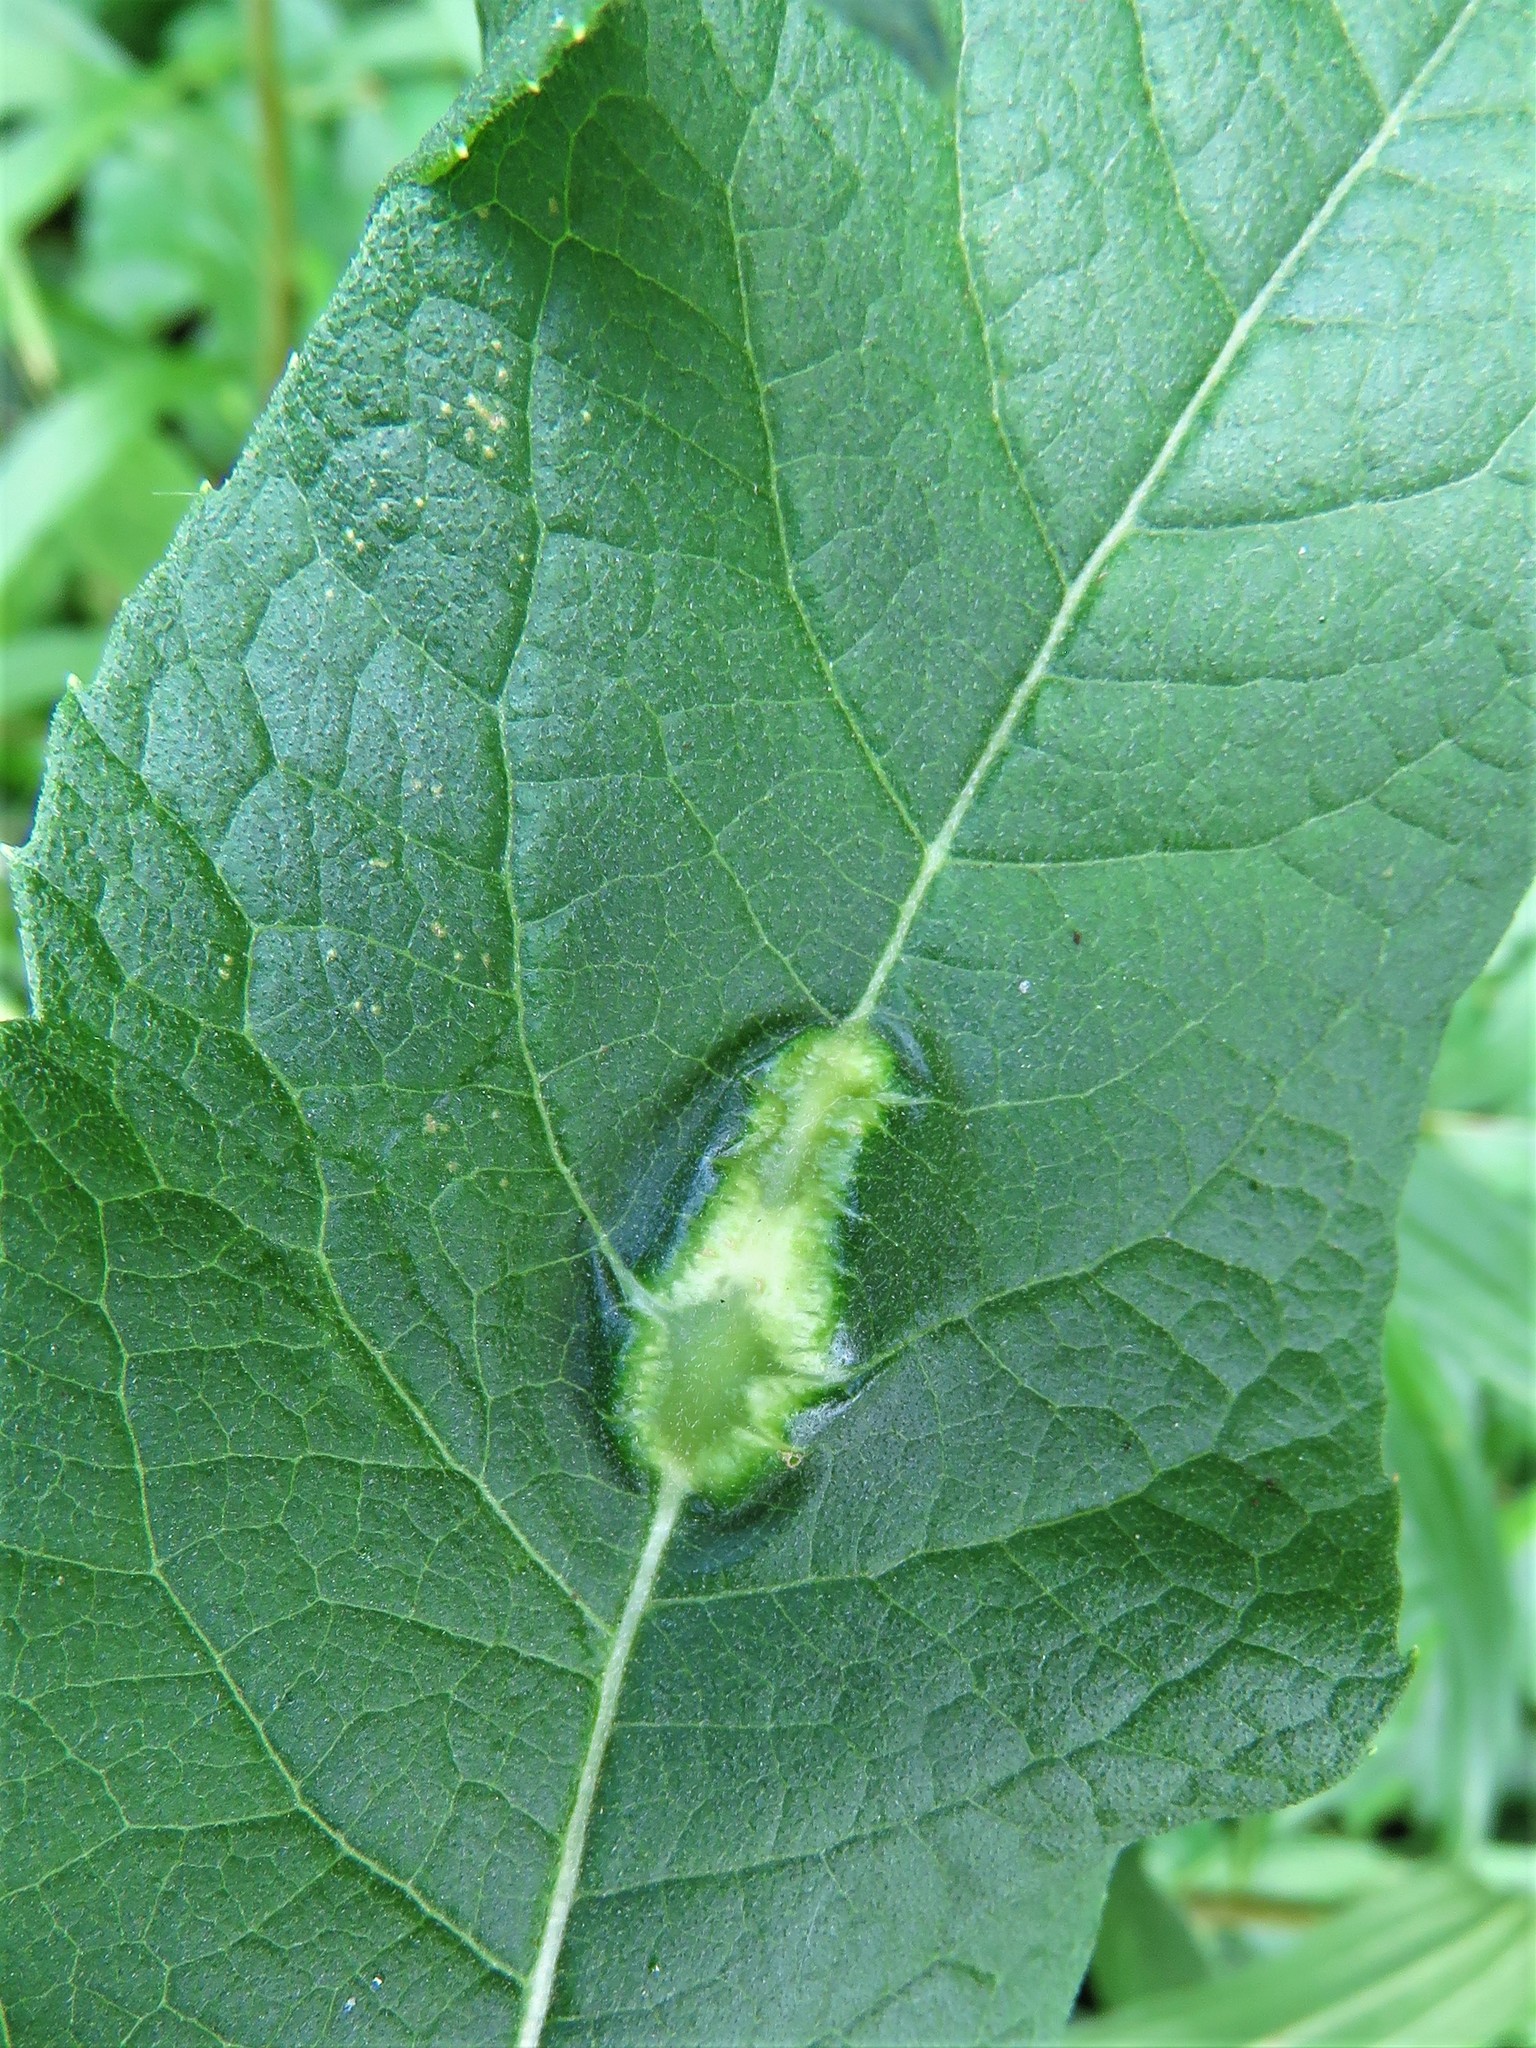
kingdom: Animalia
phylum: Arthropoda
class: Insecta
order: Diptera
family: Cecidomyiidae
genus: Neolasioptera
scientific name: Neolasioptera vernoniae
